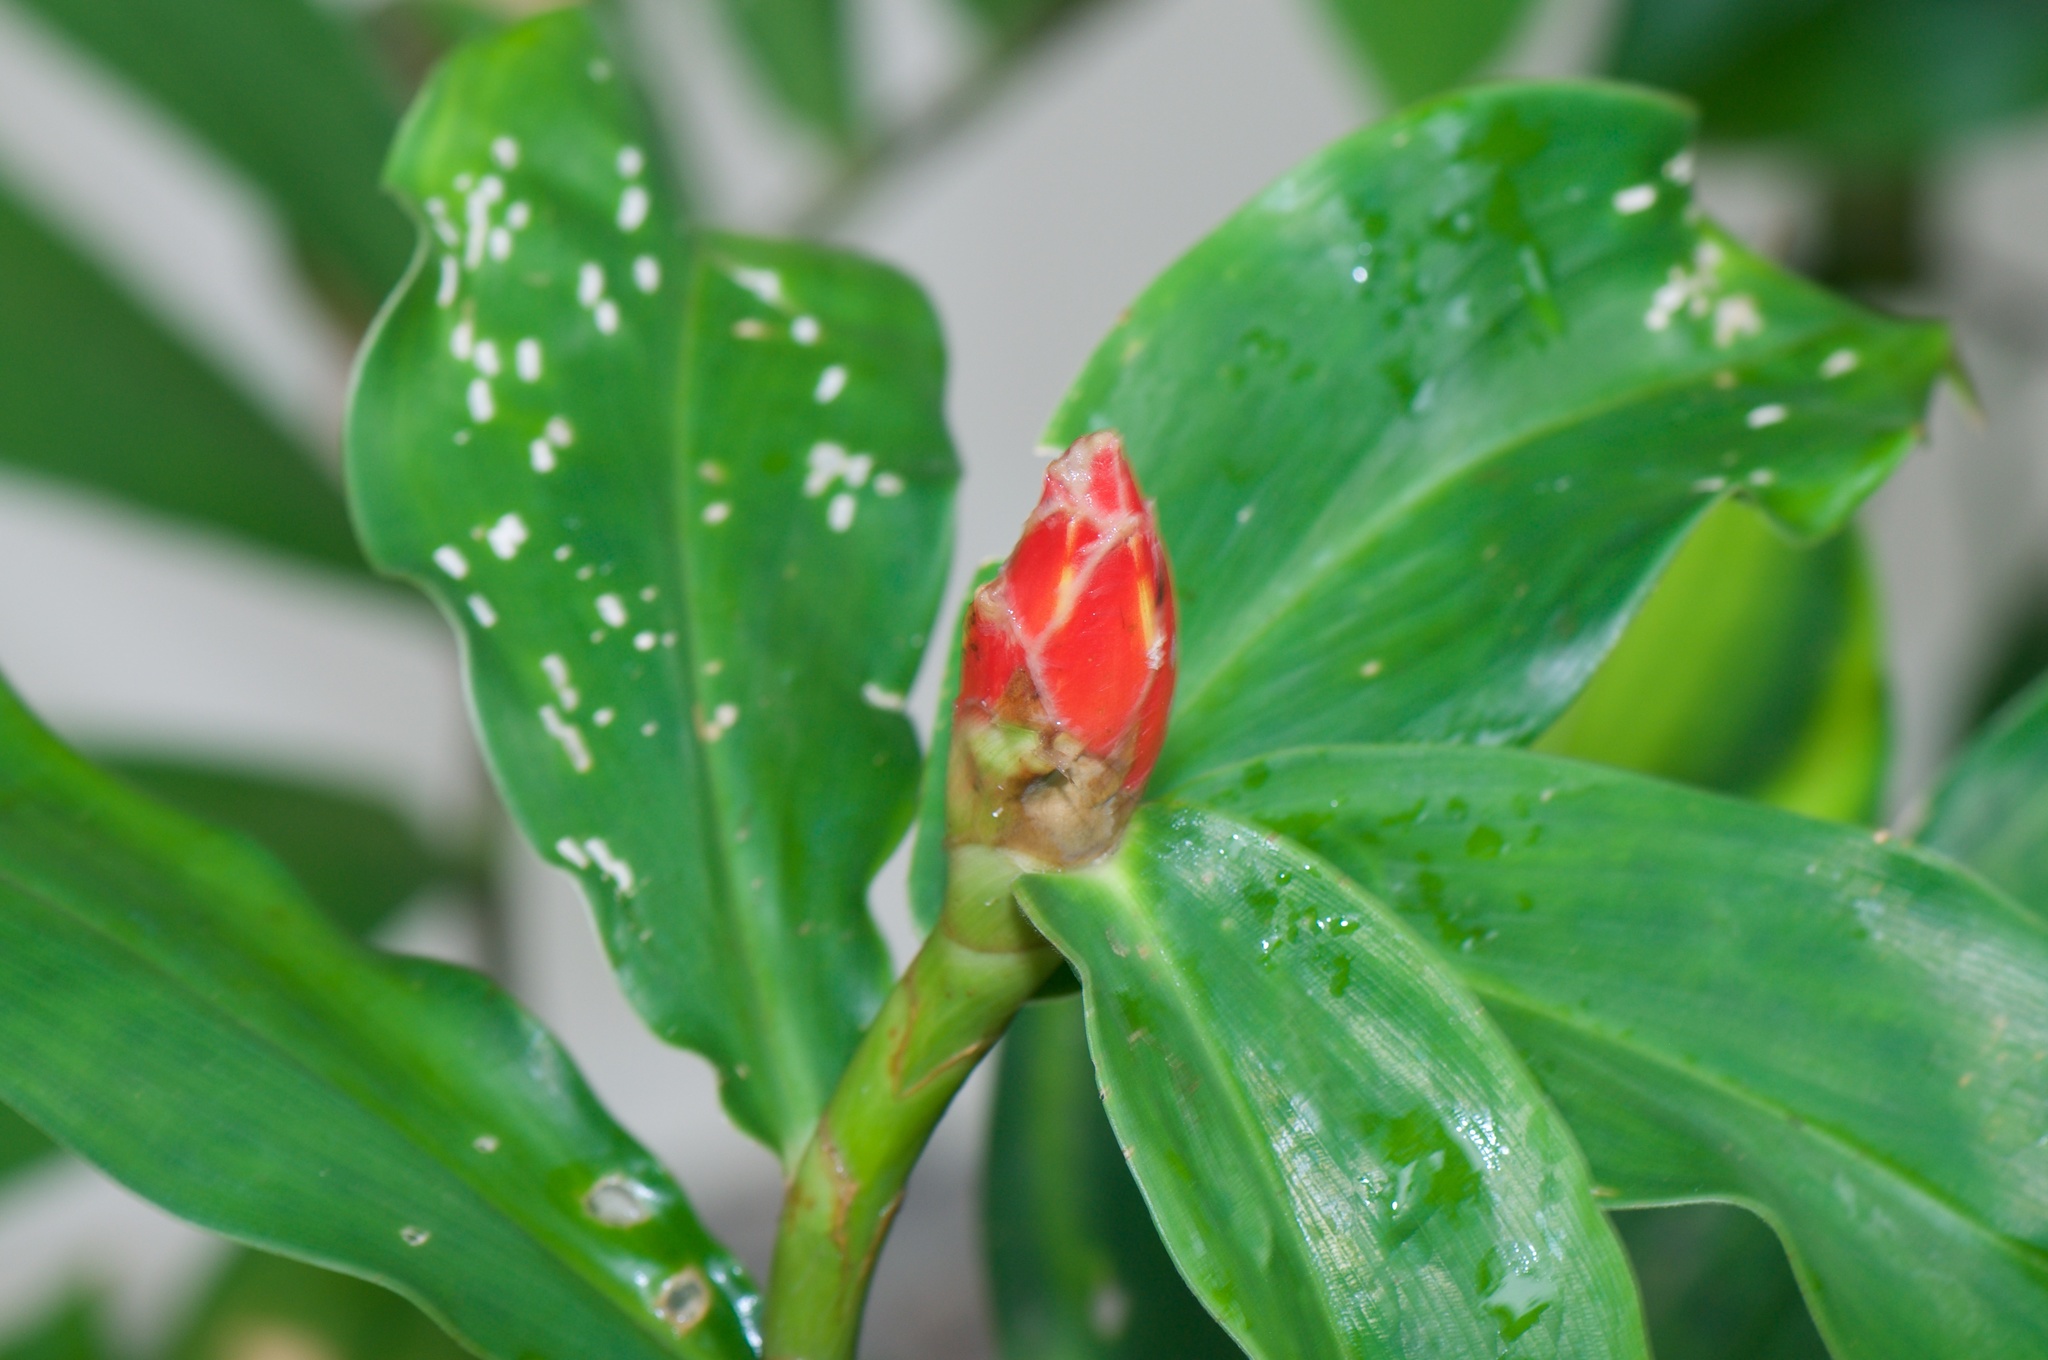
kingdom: Plantae
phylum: Tracheophyta
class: Liliopsida
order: Zingiberales
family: Costaceae
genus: Costus
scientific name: Costus pulverulentus
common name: Spiral ginger
